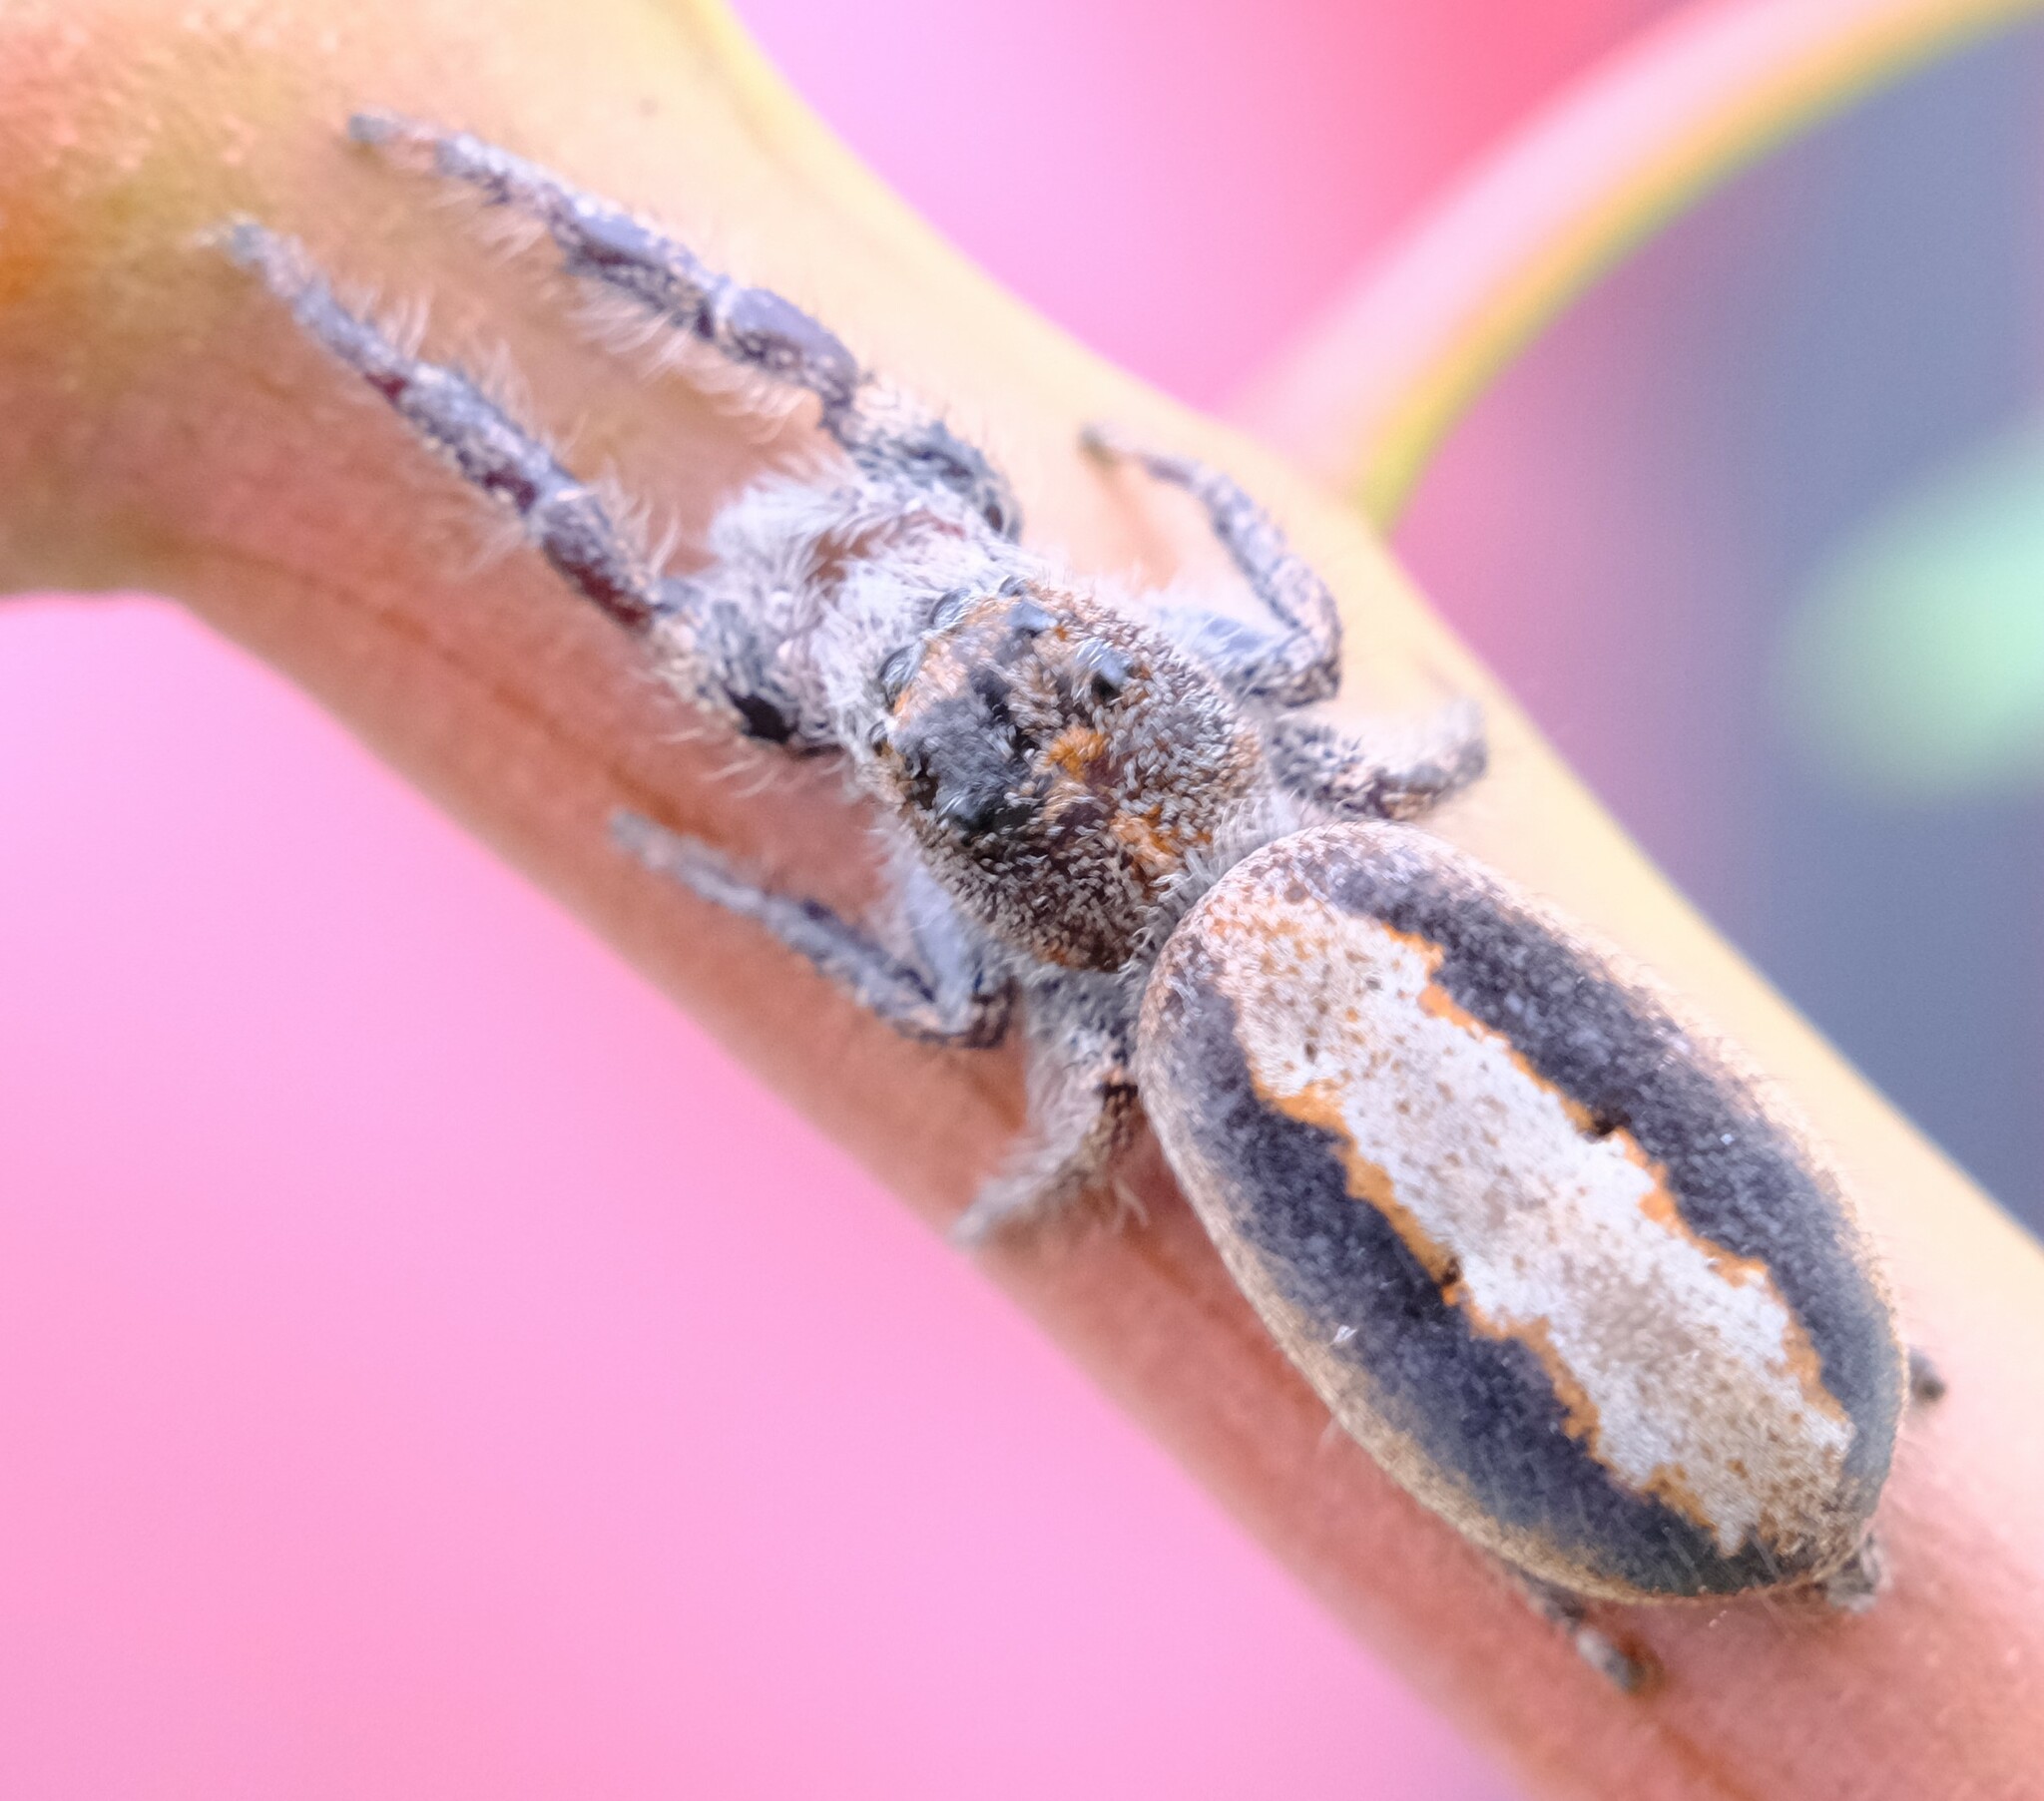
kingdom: Animalia
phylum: Arthropoda
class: Arachnida
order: Araneae
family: Salticidae
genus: Sandalodes
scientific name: Sandalodes superbus
